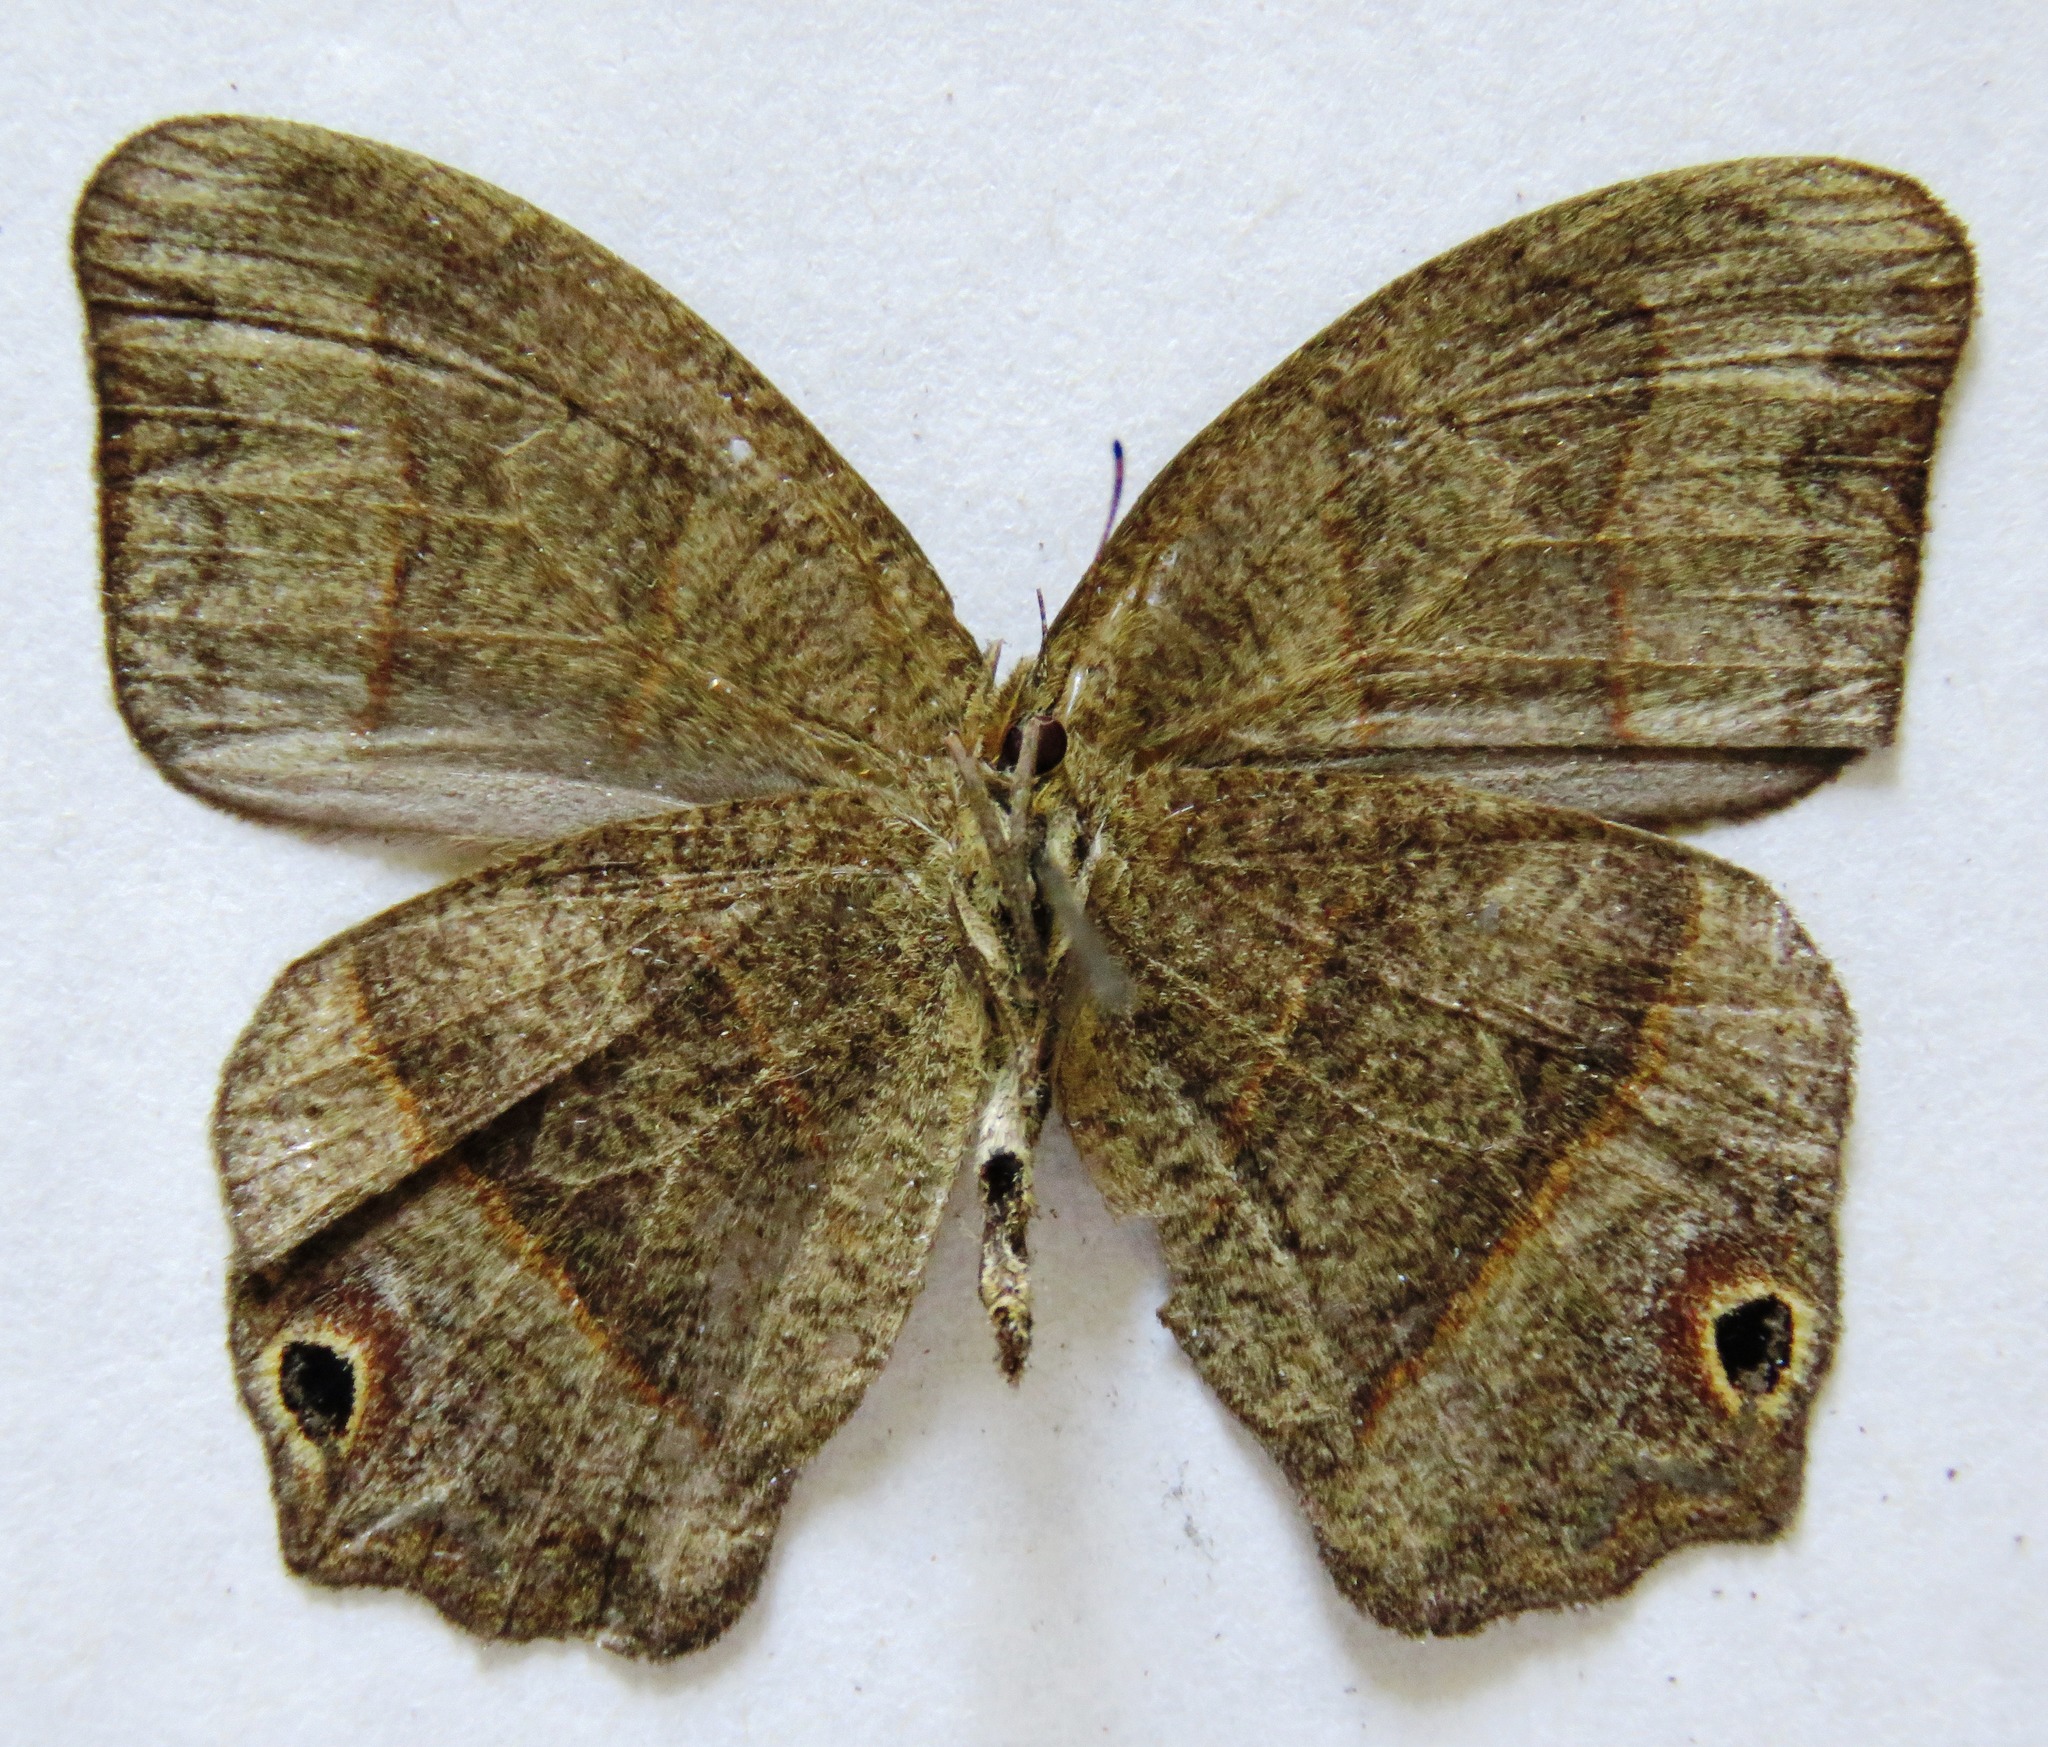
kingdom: Animalia
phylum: Arthropoda
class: Insecta
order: Lepidoptera
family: Nymphalidae
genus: Euptychia
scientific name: Euptychia Cyllopsis hedemanni
